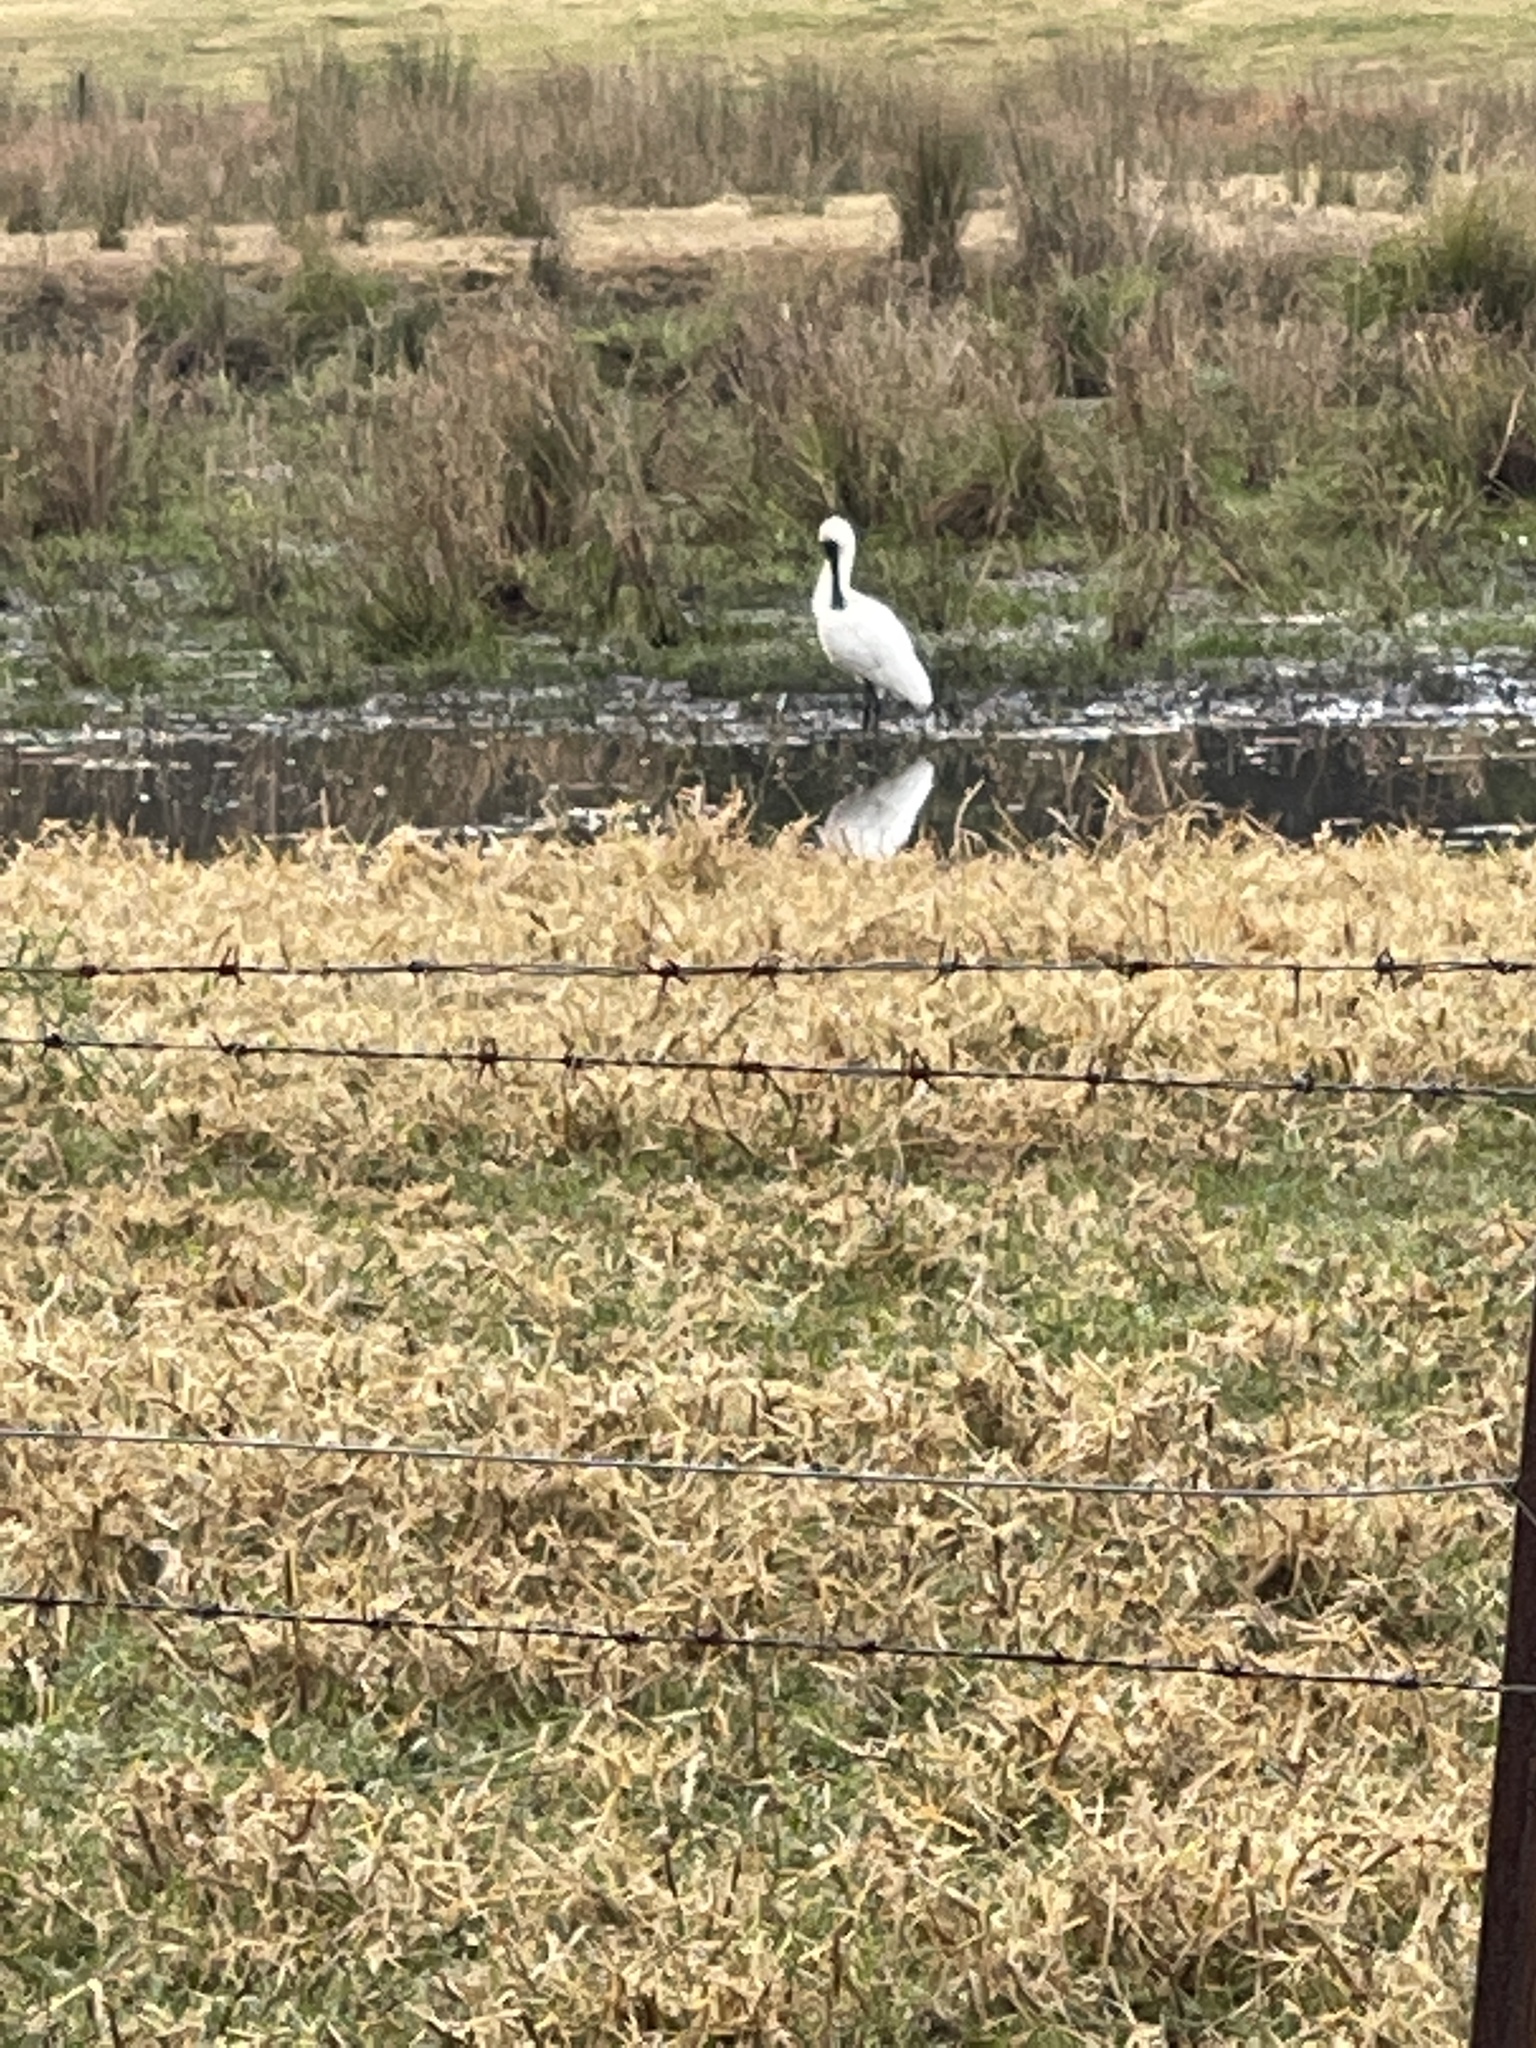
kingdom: Animalia
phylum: Chordata
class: Aves
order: Pelecaniformes
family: Threskiornithidae
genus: Platalea
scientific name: Platalea regia
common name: Royal spoonbill
